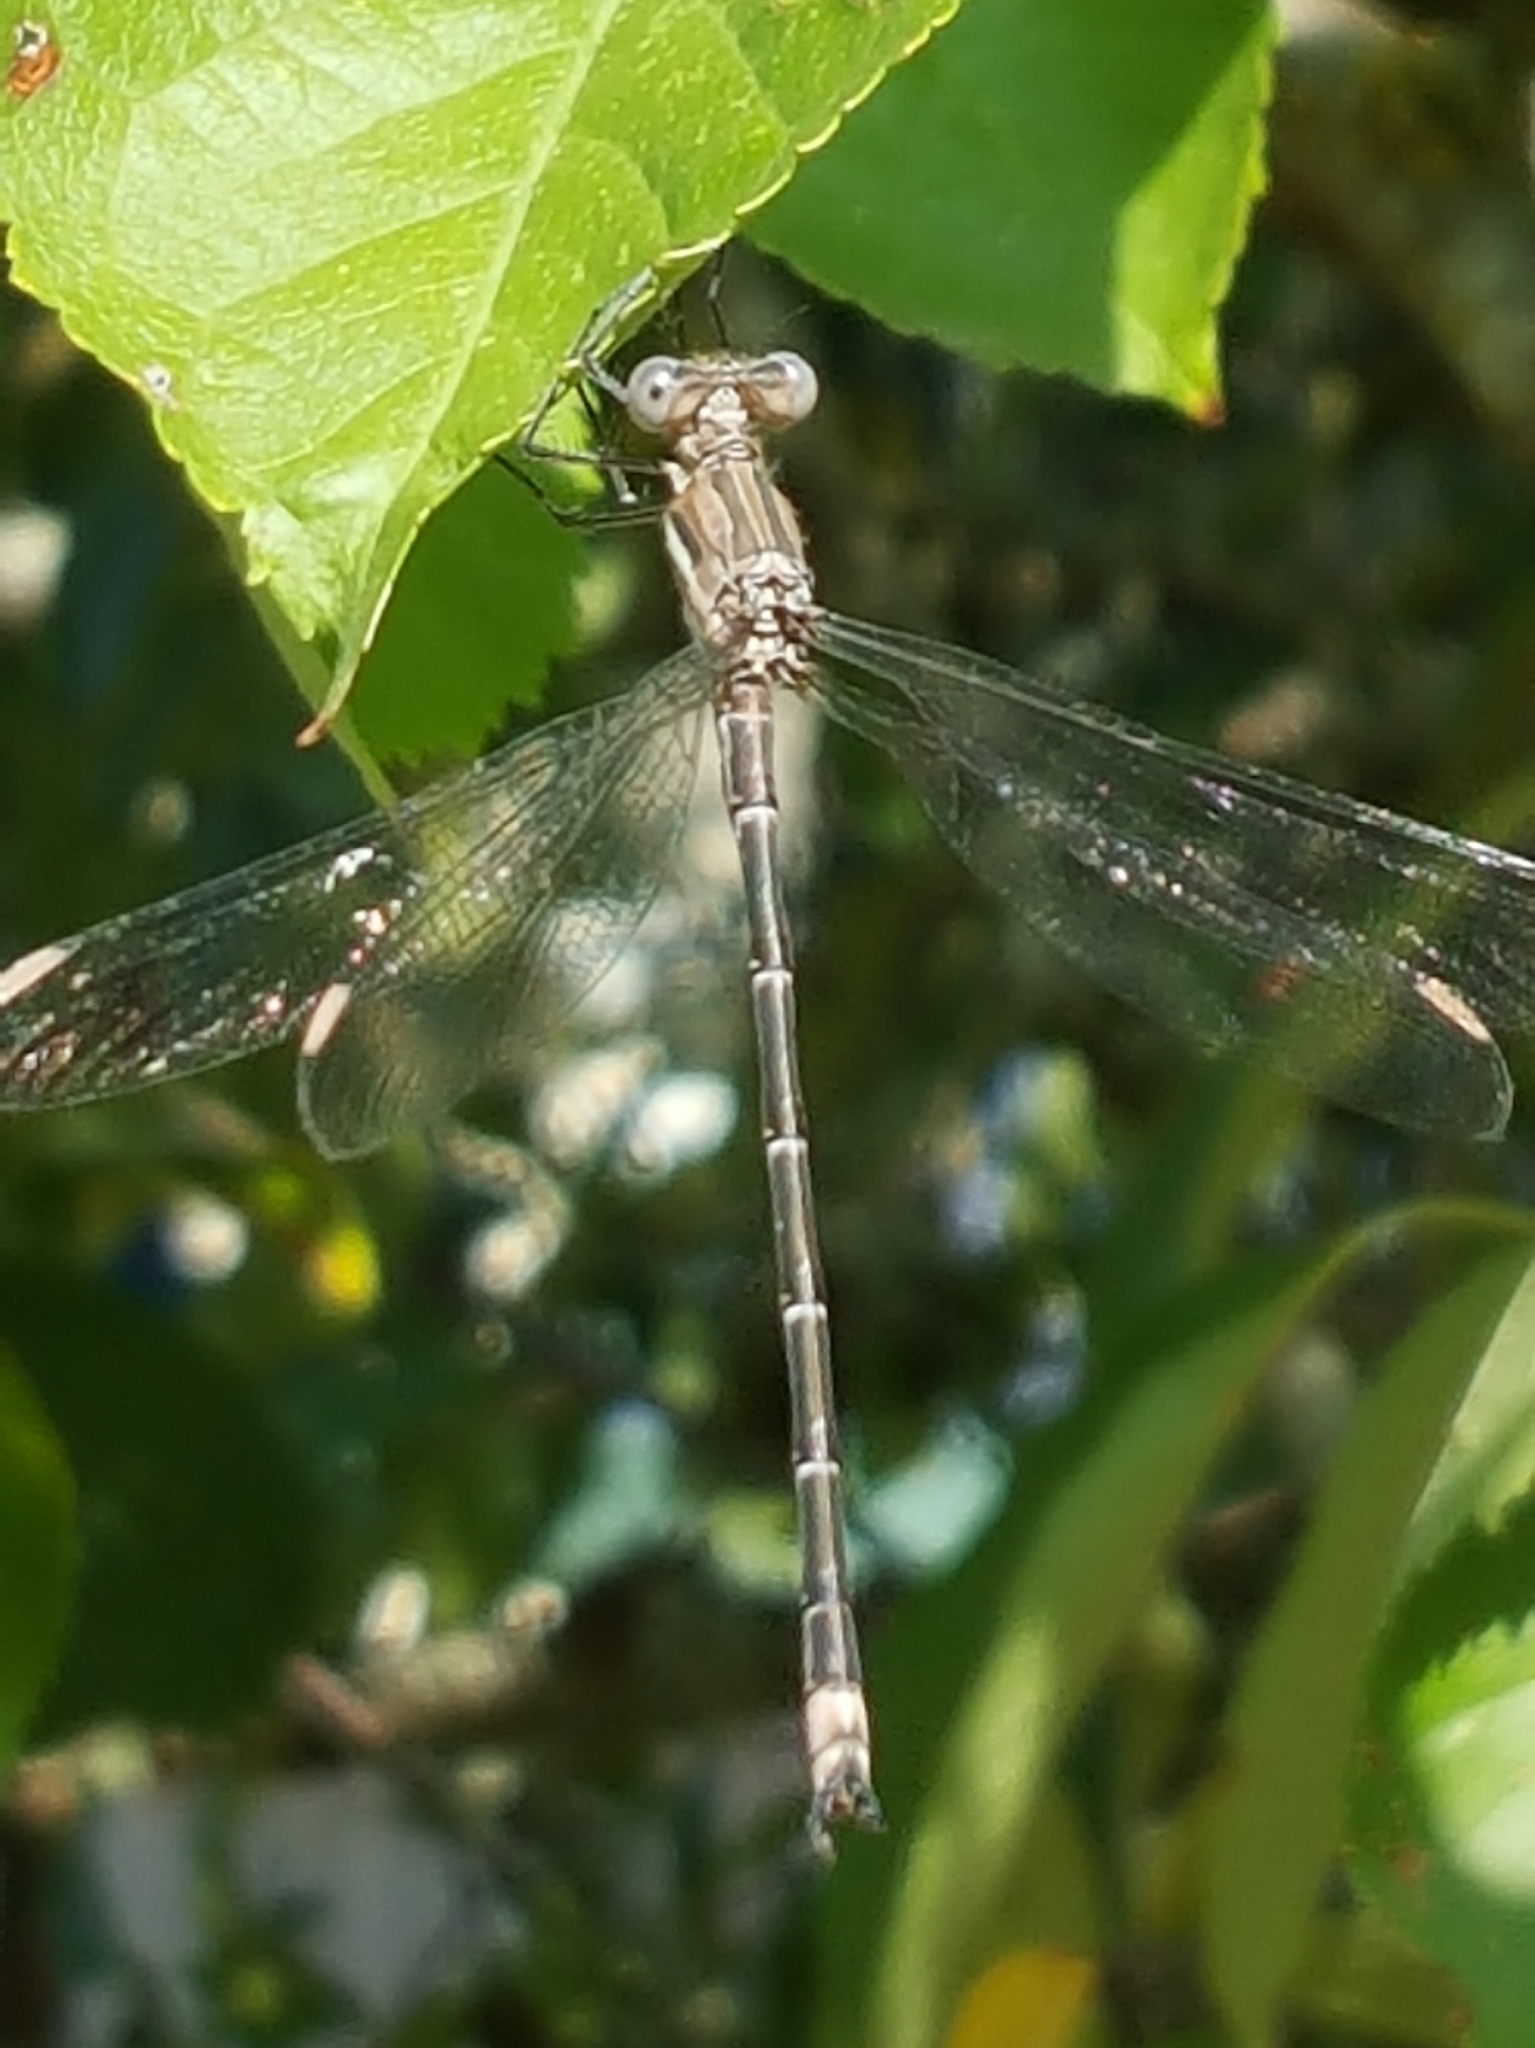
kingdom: Animalia
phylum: Arthropoda
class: Insecta
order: Odonata
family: Lestidae
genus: Archilestes
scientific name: Archilestes californicus
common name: California spreadwing
